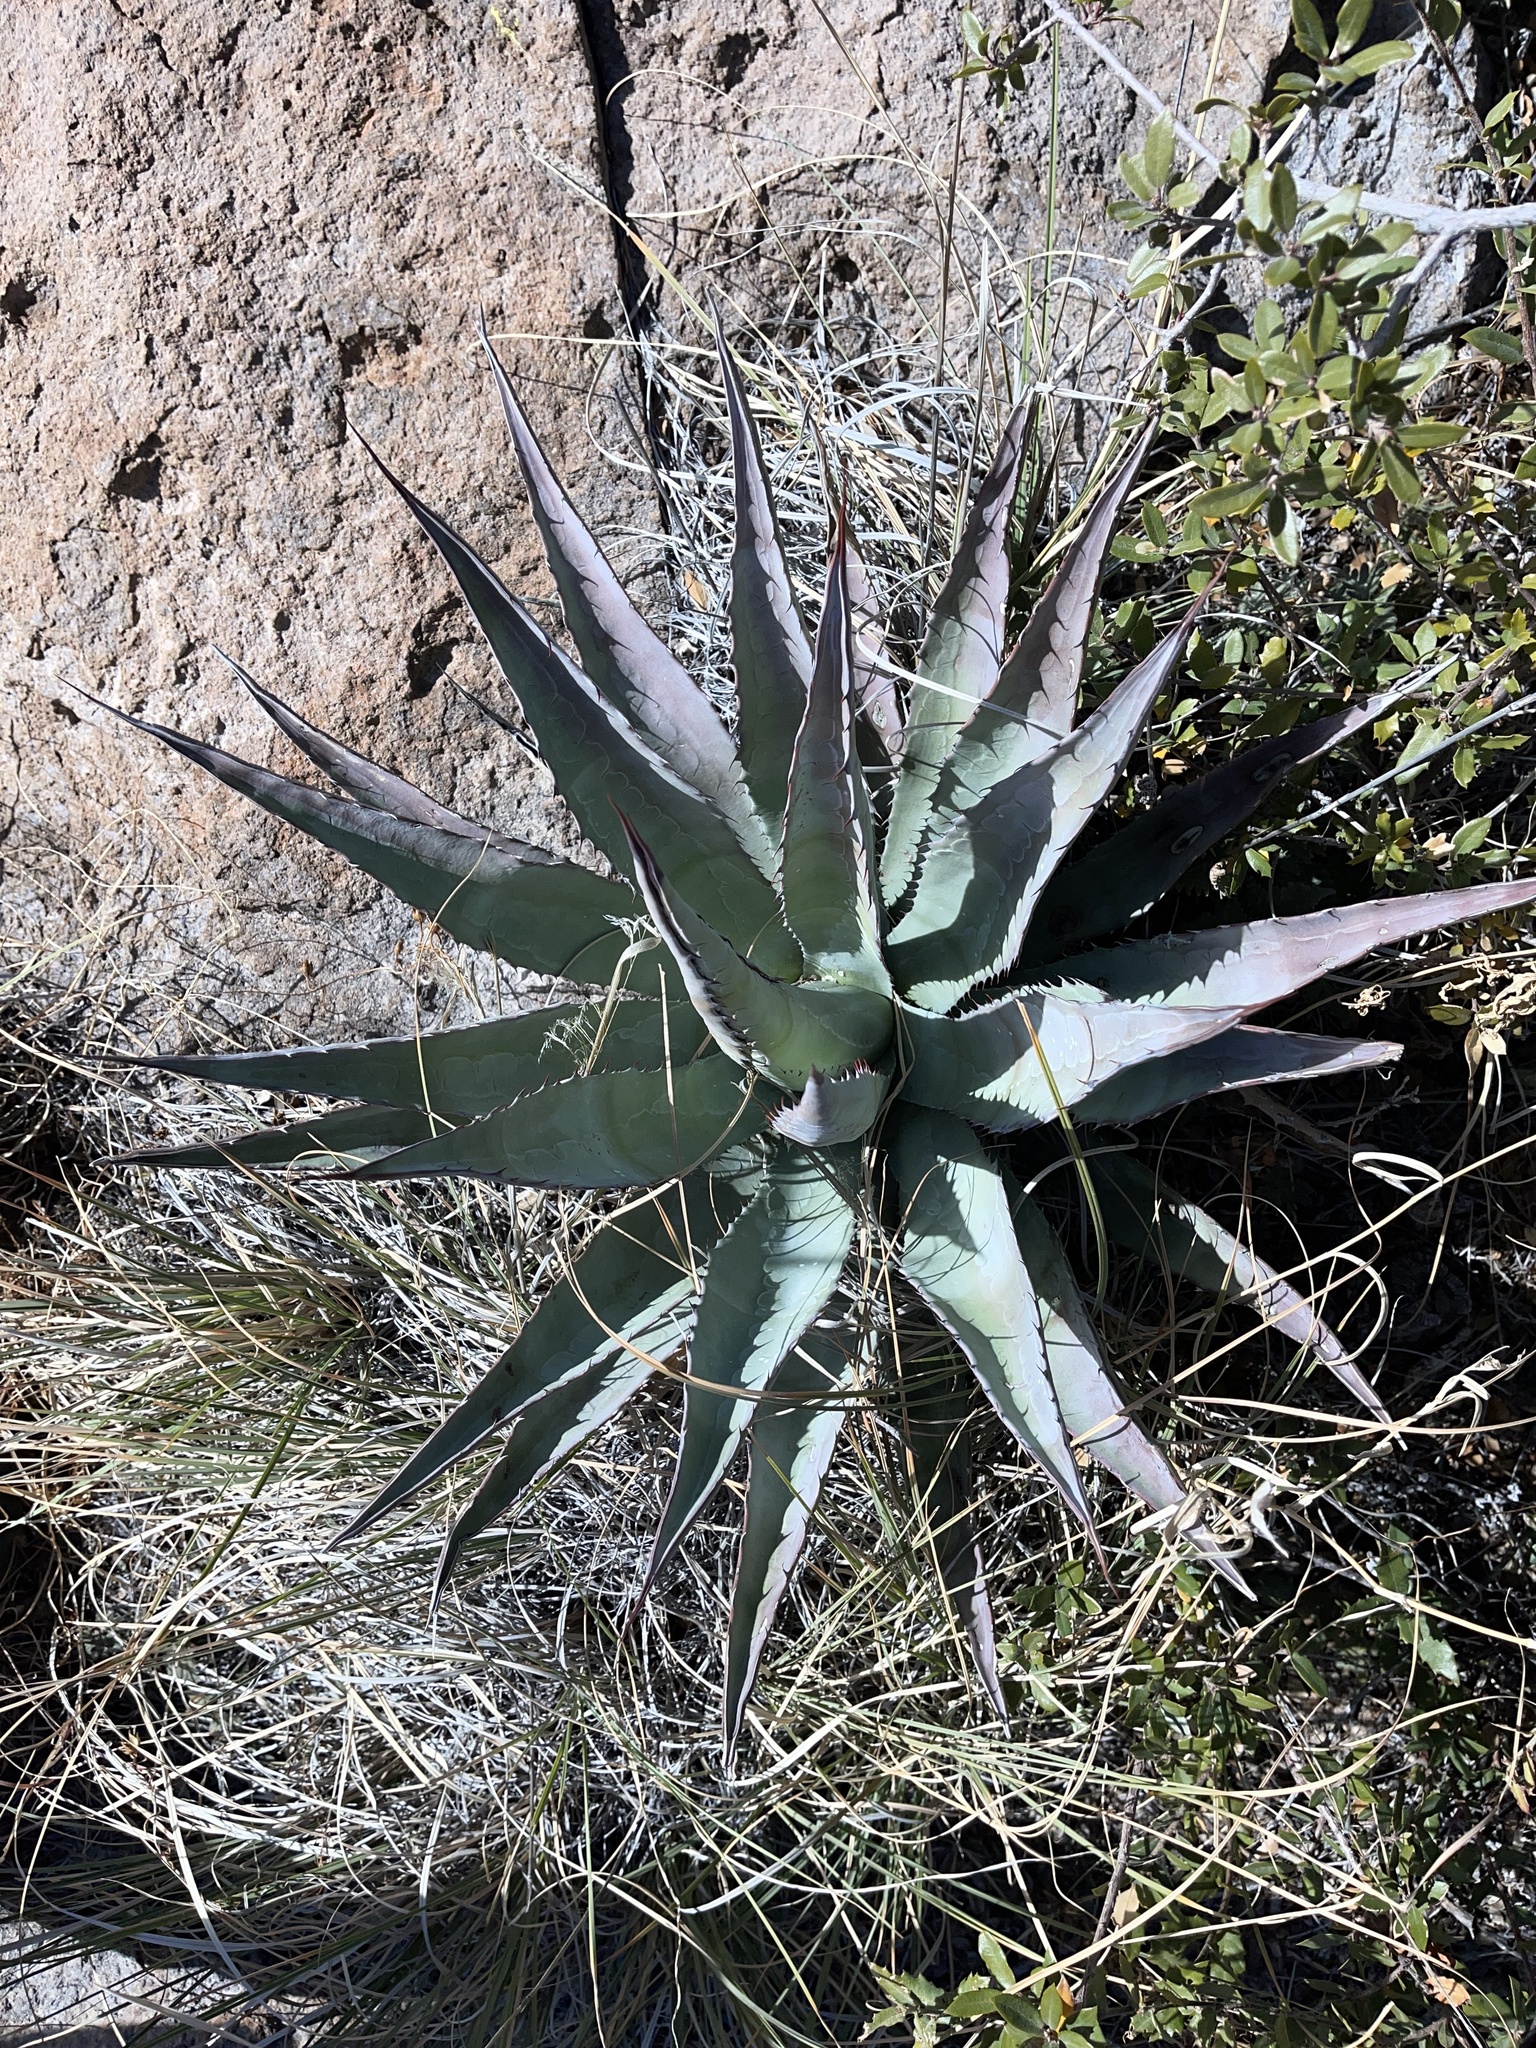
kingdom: Plantae
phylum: Tracheophyta
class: Liliopsida
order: Asparagales
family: Asparagaceae
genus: Agave
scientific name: Agave palmeri
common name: Palmer agave
